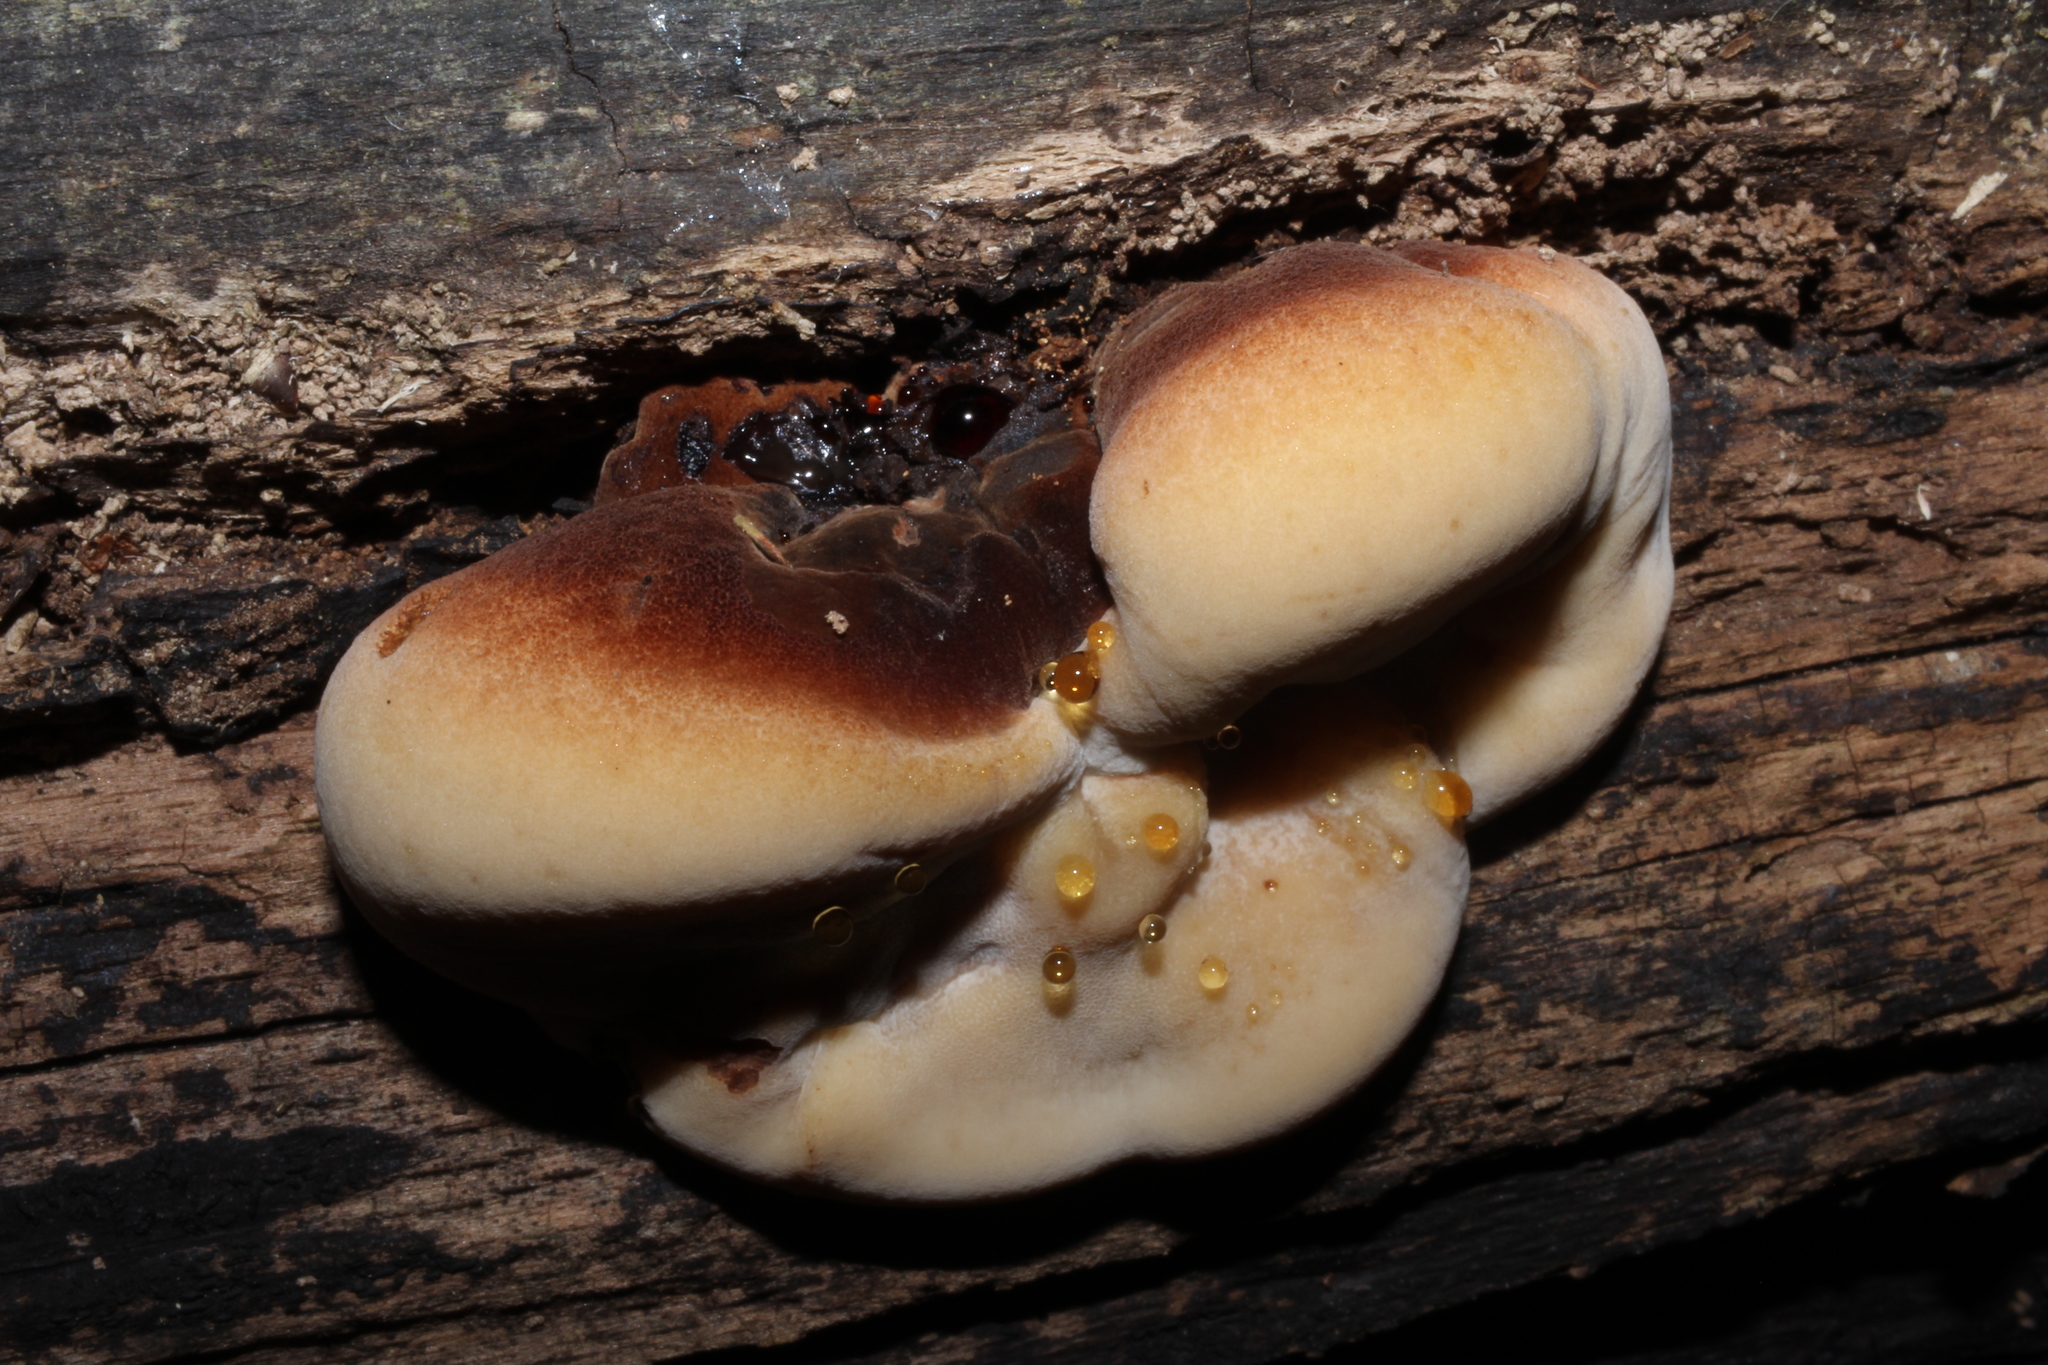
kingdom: Fungi
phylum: Basidiomycota
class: Agaricomycetes
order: Polyporales
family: Ischnodermataceae
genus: Ischnoderma
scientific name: Ischnoderma resinosum
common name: Resinous polypore
